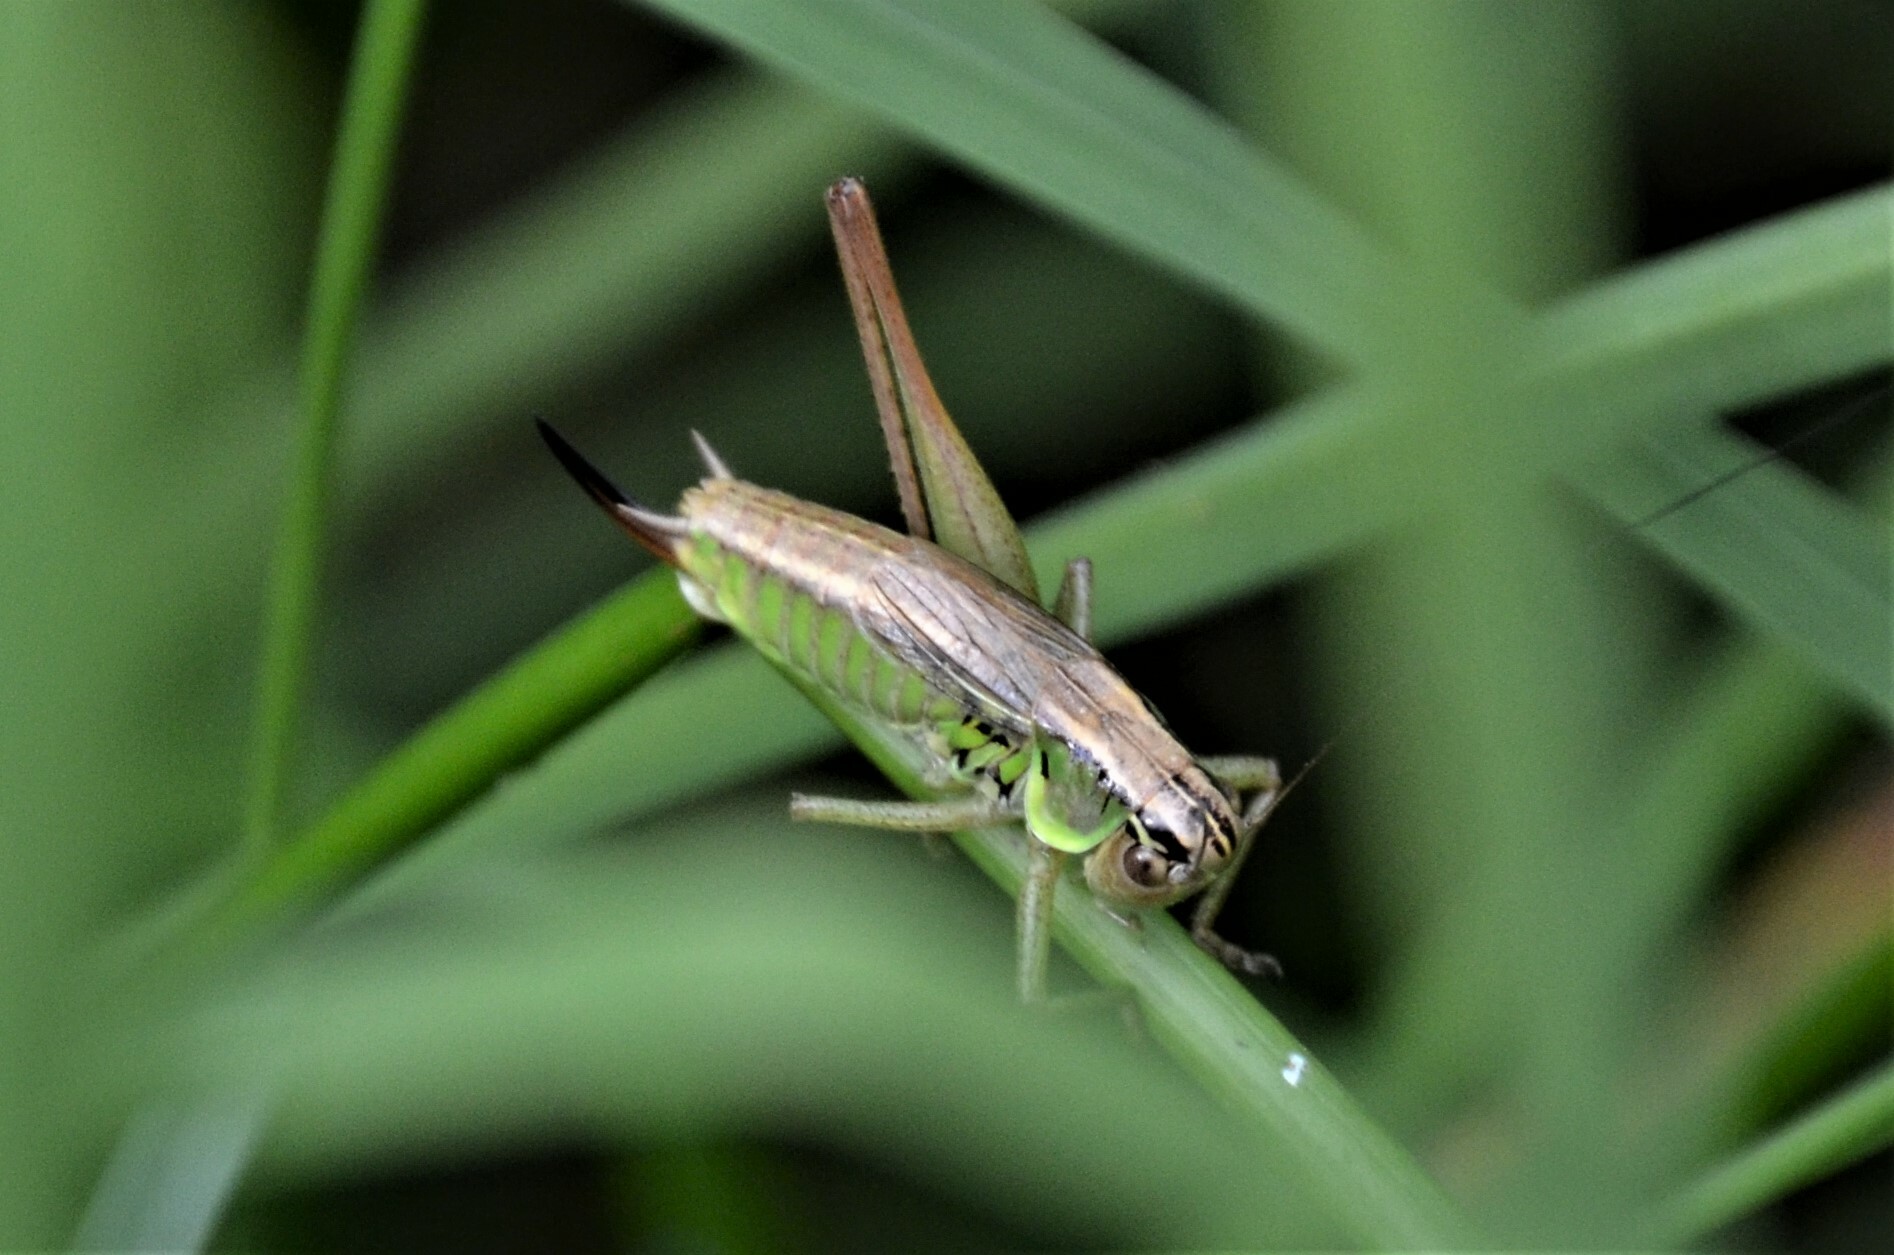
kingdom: Animalia
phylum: Arthropoda
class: Insecta
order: Orthoptera
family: Tettigoniidae
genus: Roeseliana
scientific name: Roeseliana roeselii
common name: Roesel's bush cricket
